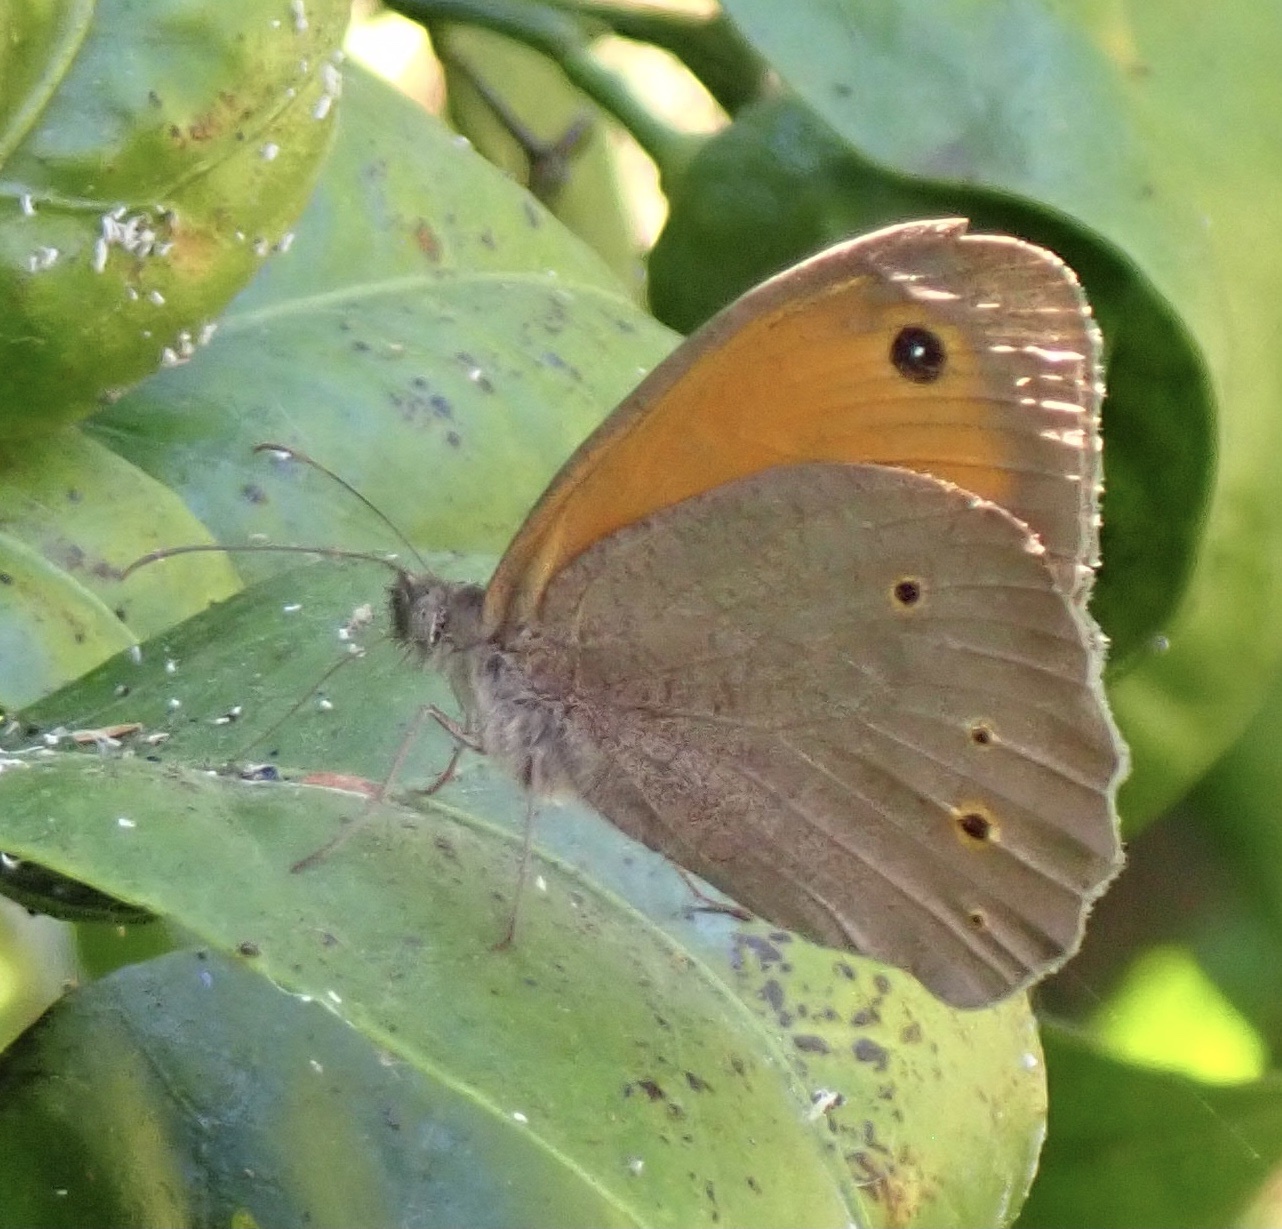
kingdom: Animalia
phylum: Arthropoda
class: Insecta
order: Lepidoptera
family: Nymphalidae
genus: Maniola
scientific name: Maniola jurtina
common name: Meadow brown
